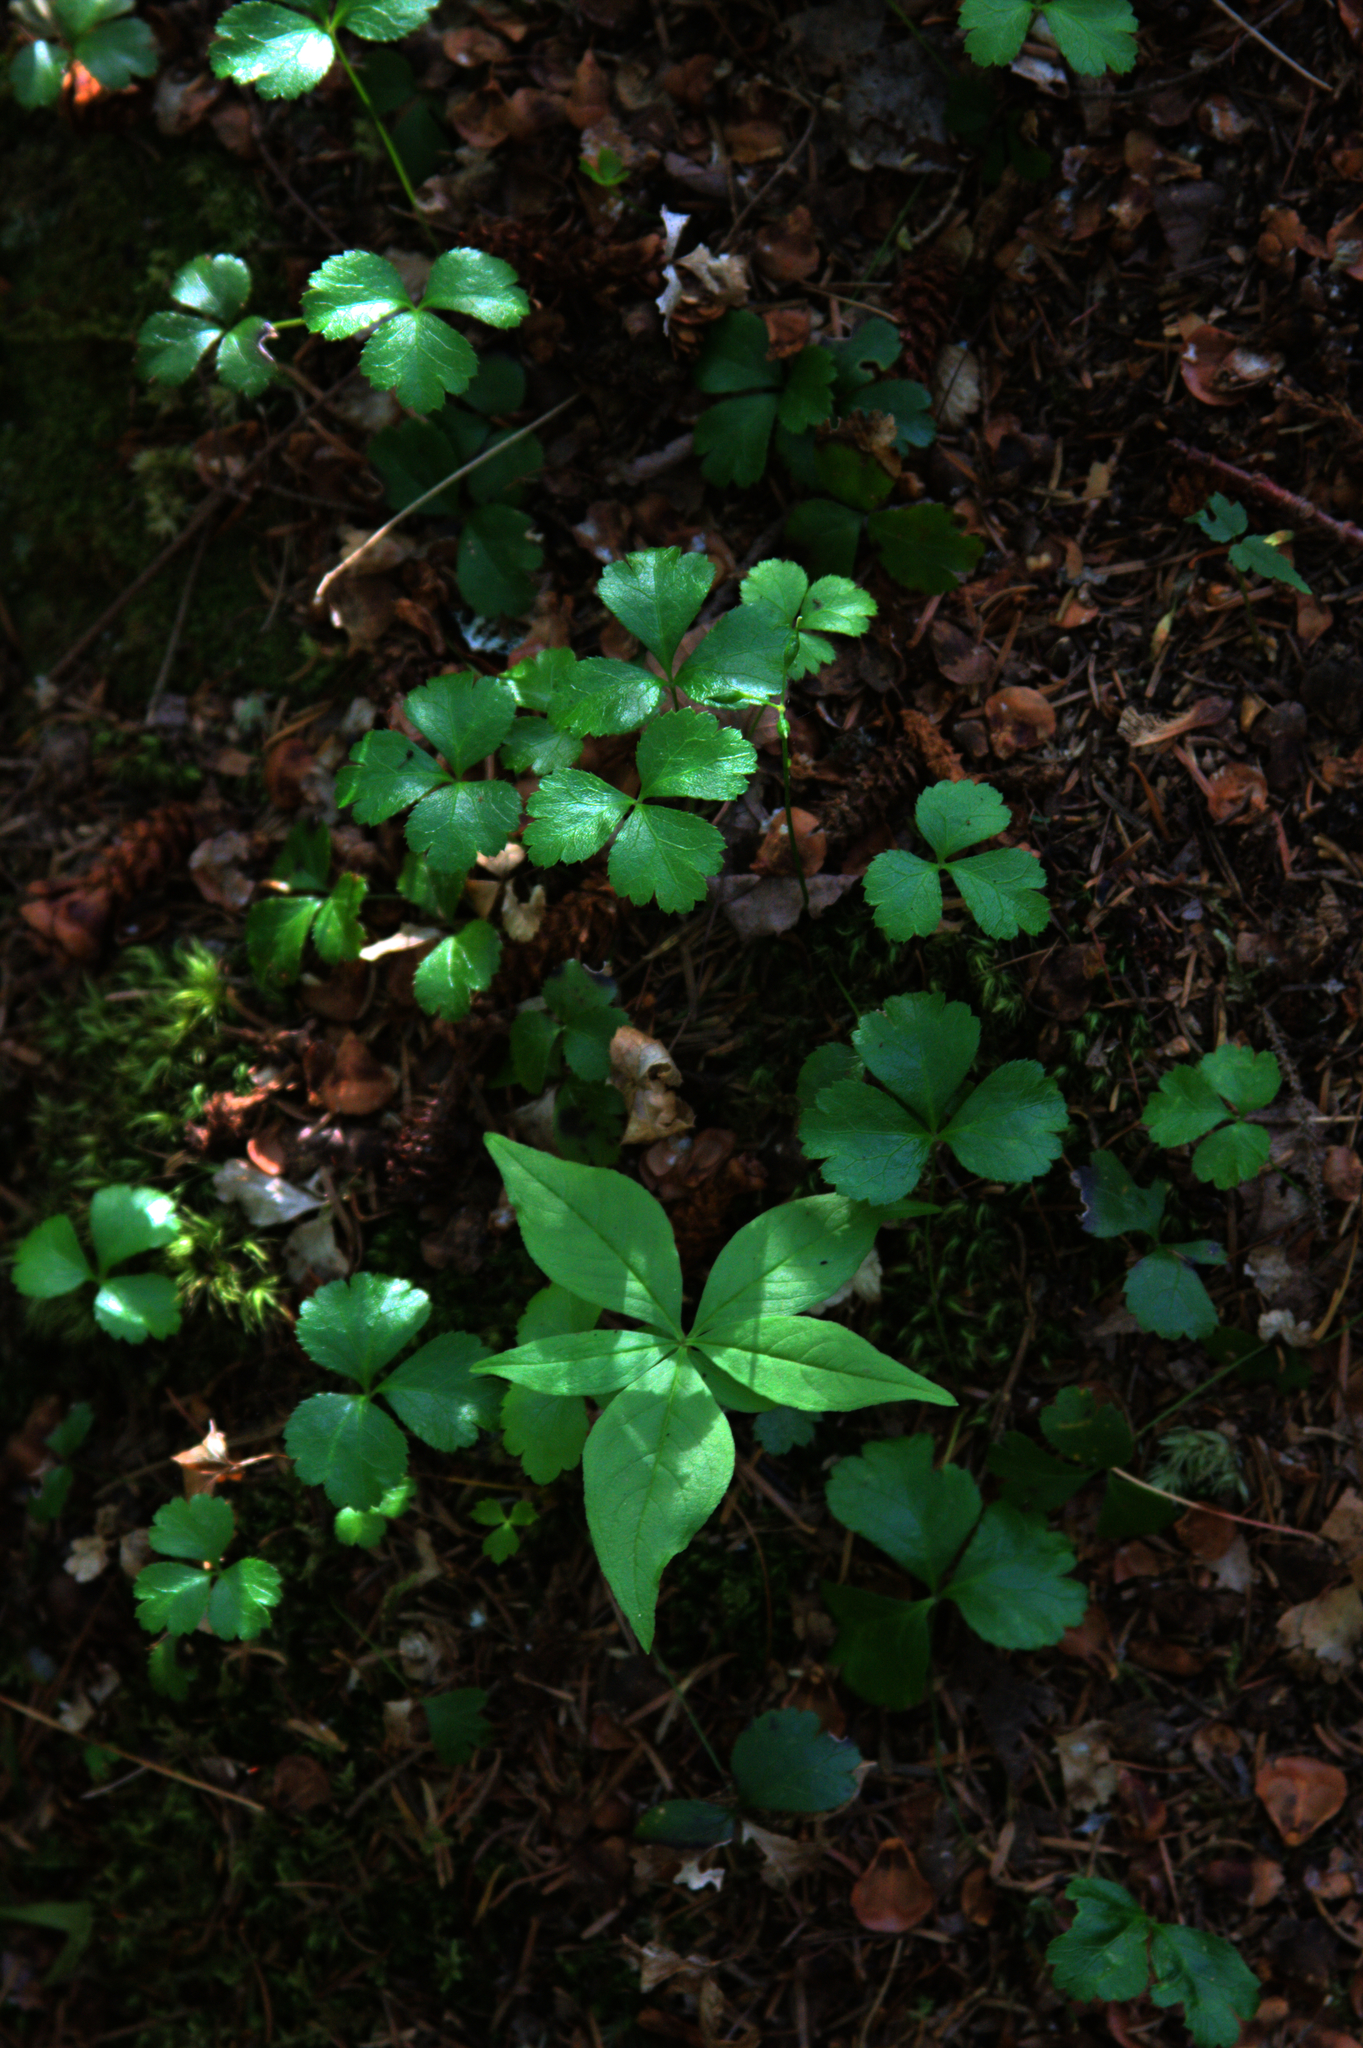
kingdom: Plantae
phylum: Tracheophyta
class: Magnoliopsida
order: Ranunculales
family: Ranunculaceae
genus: Coptis
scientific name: Coptis trifolia
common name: Canker-root
